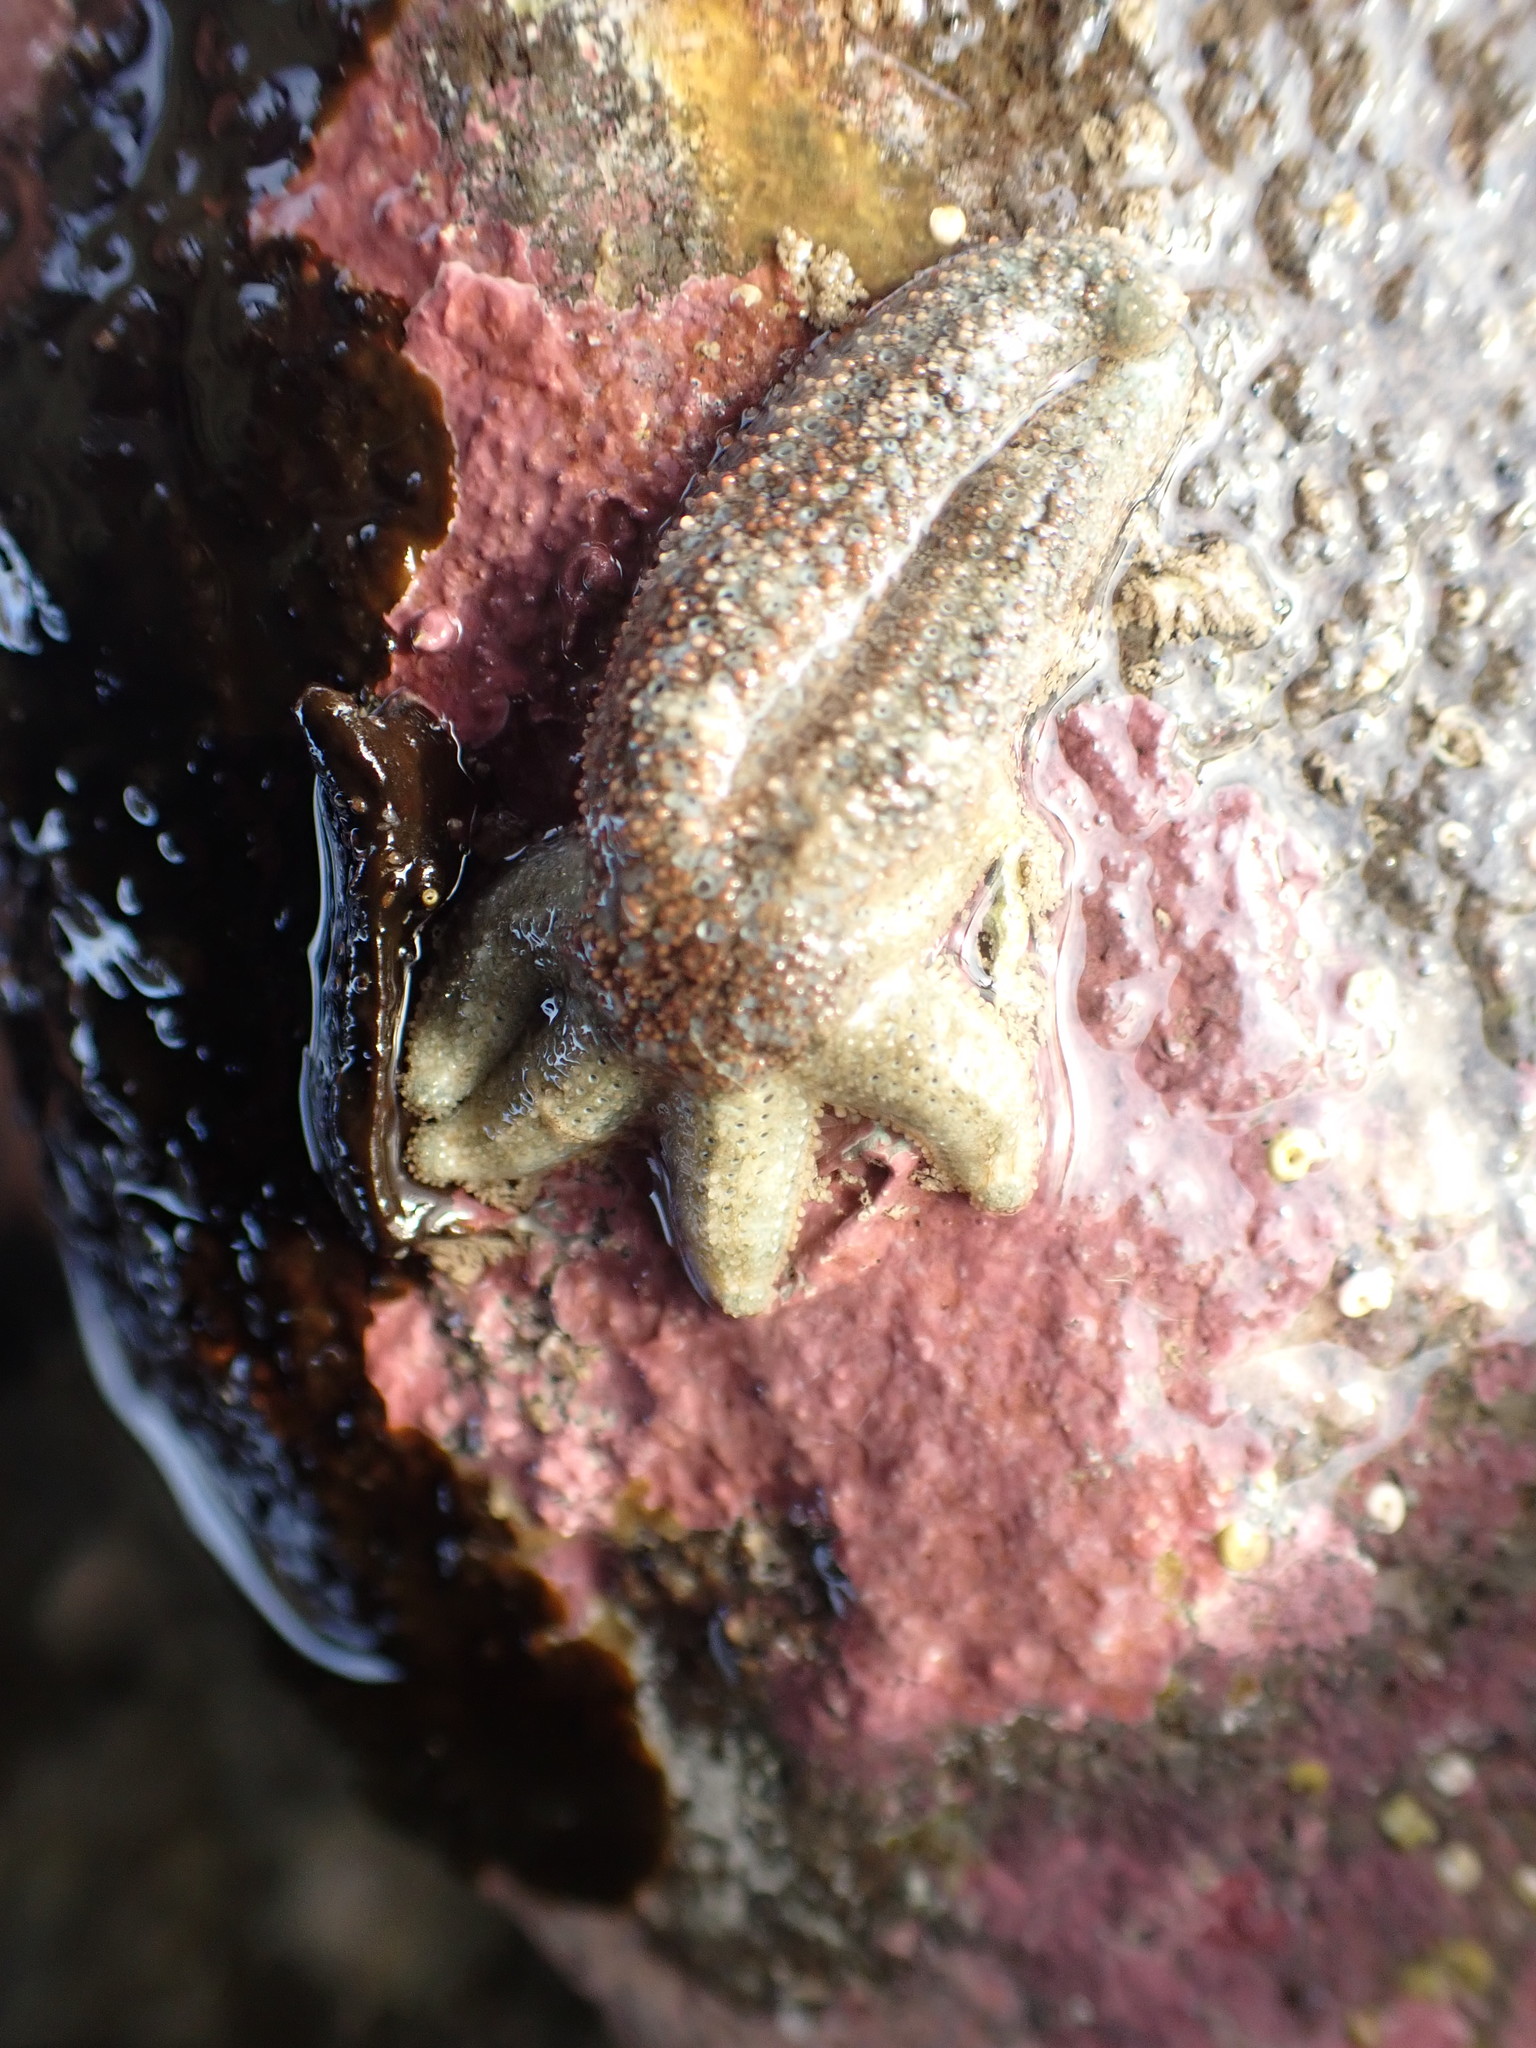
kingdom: Animalia
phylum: Echinodermata
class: Asteroidea
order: Forcipulatida
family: Stichasteridae
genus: Allostichaster
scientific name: Allostichaster polyplax
